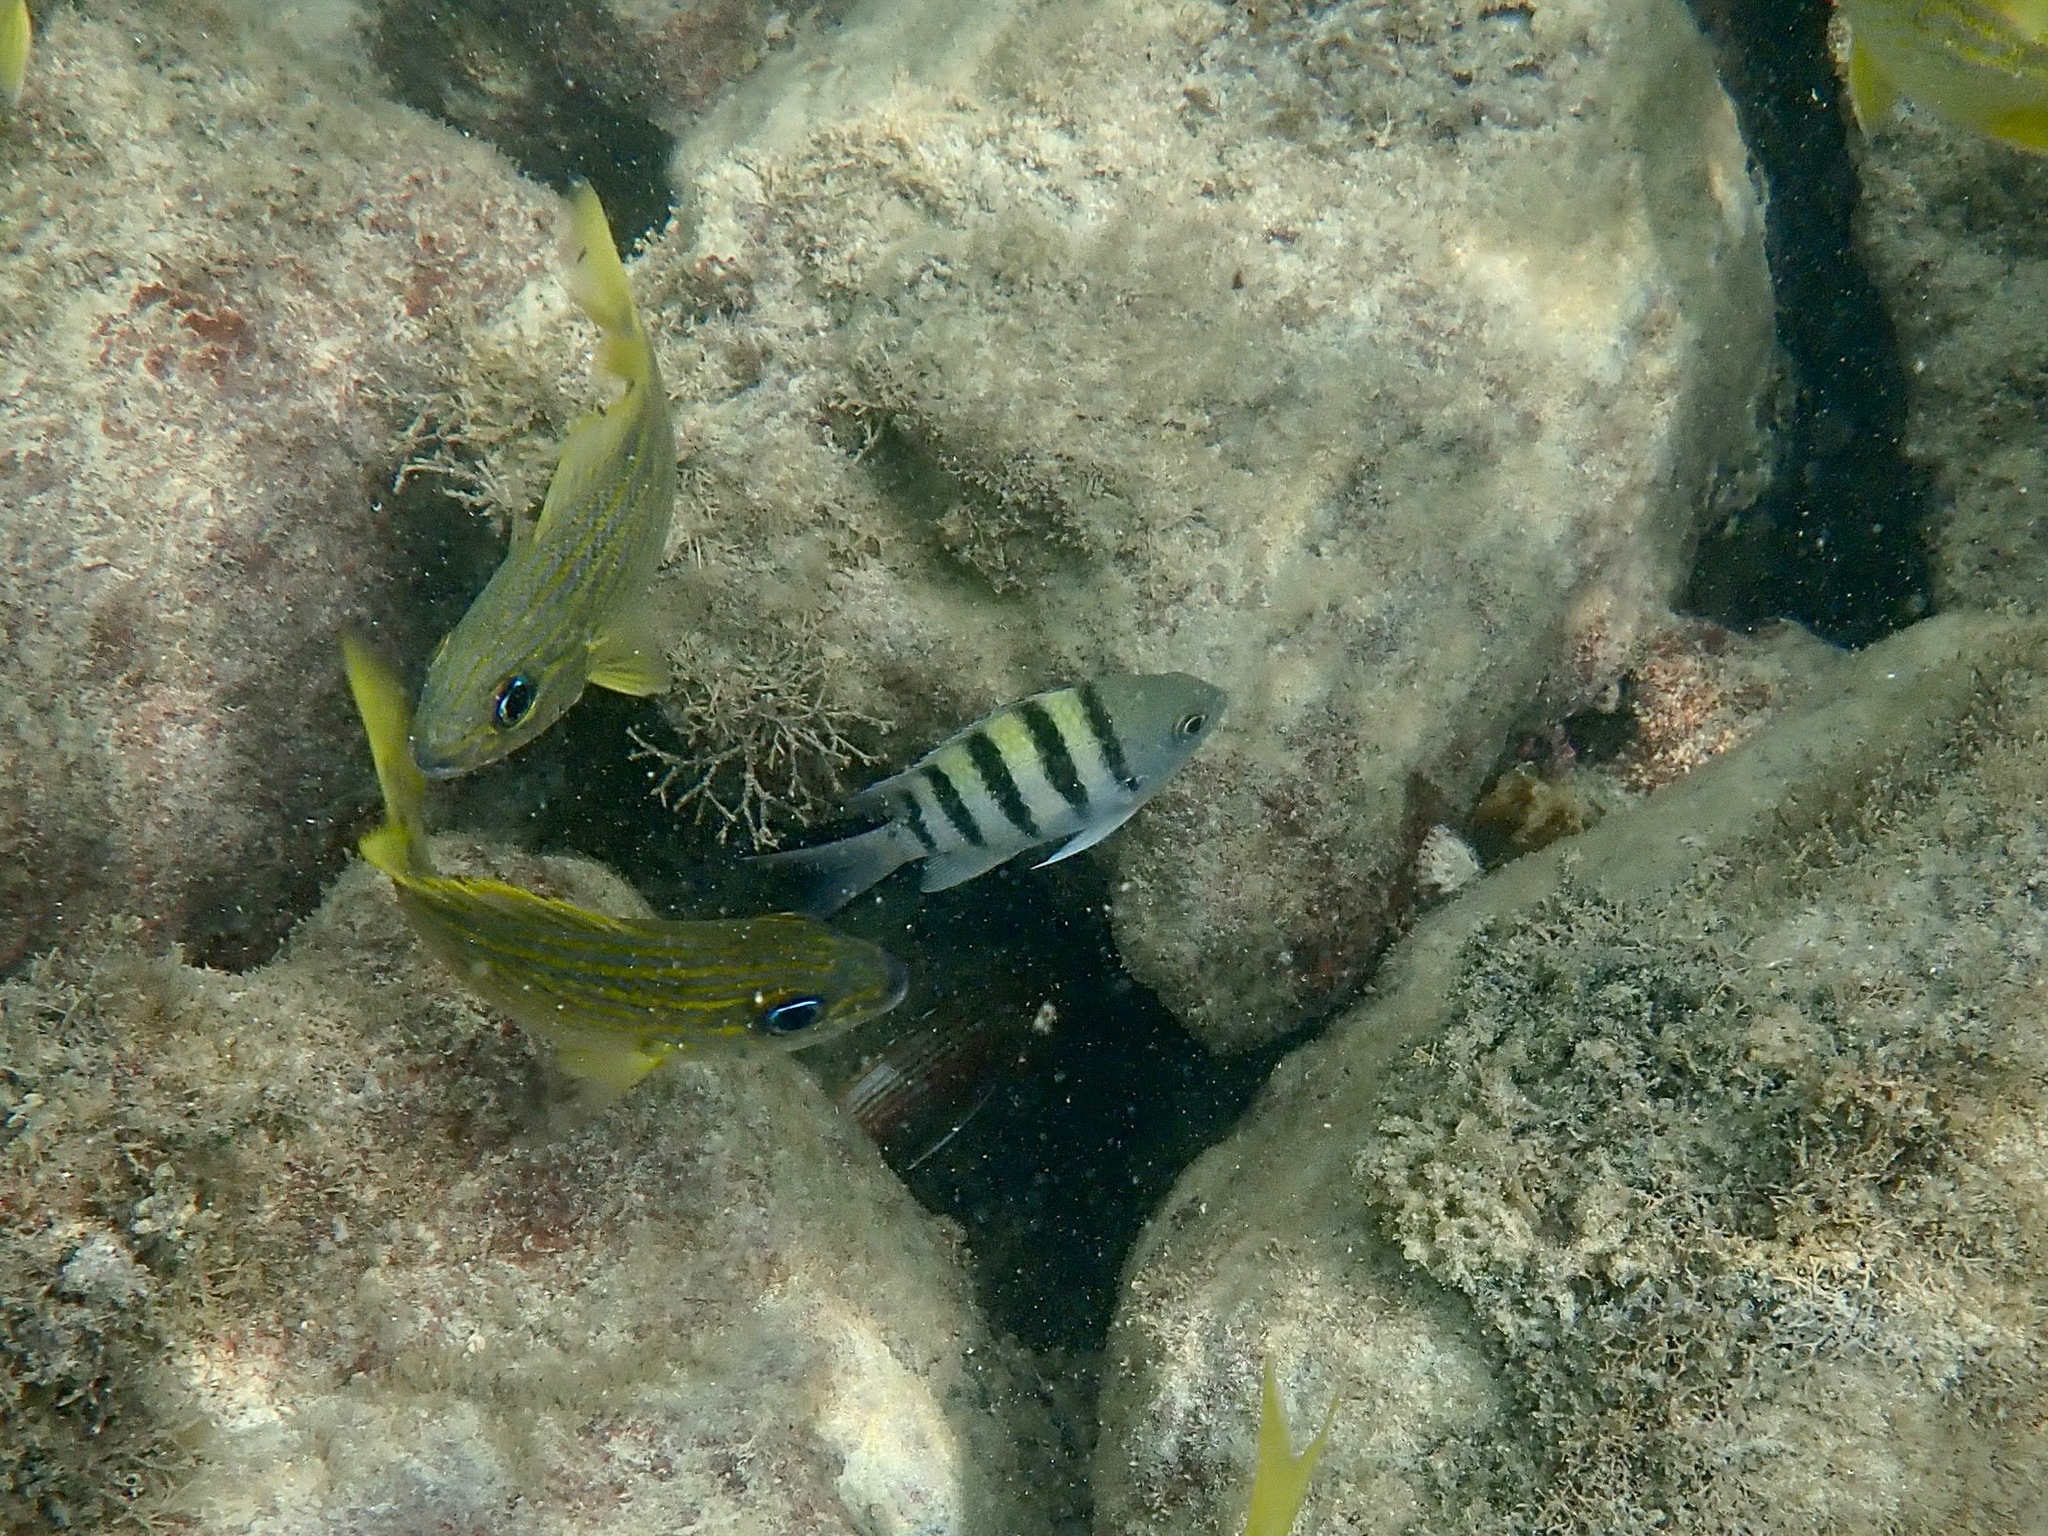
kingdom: Animalia
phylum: Chordata
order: Perciformes
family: Pomacentridae
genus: Abudefduf
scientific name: Abudefduf saxatilis
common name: Sergeant major
